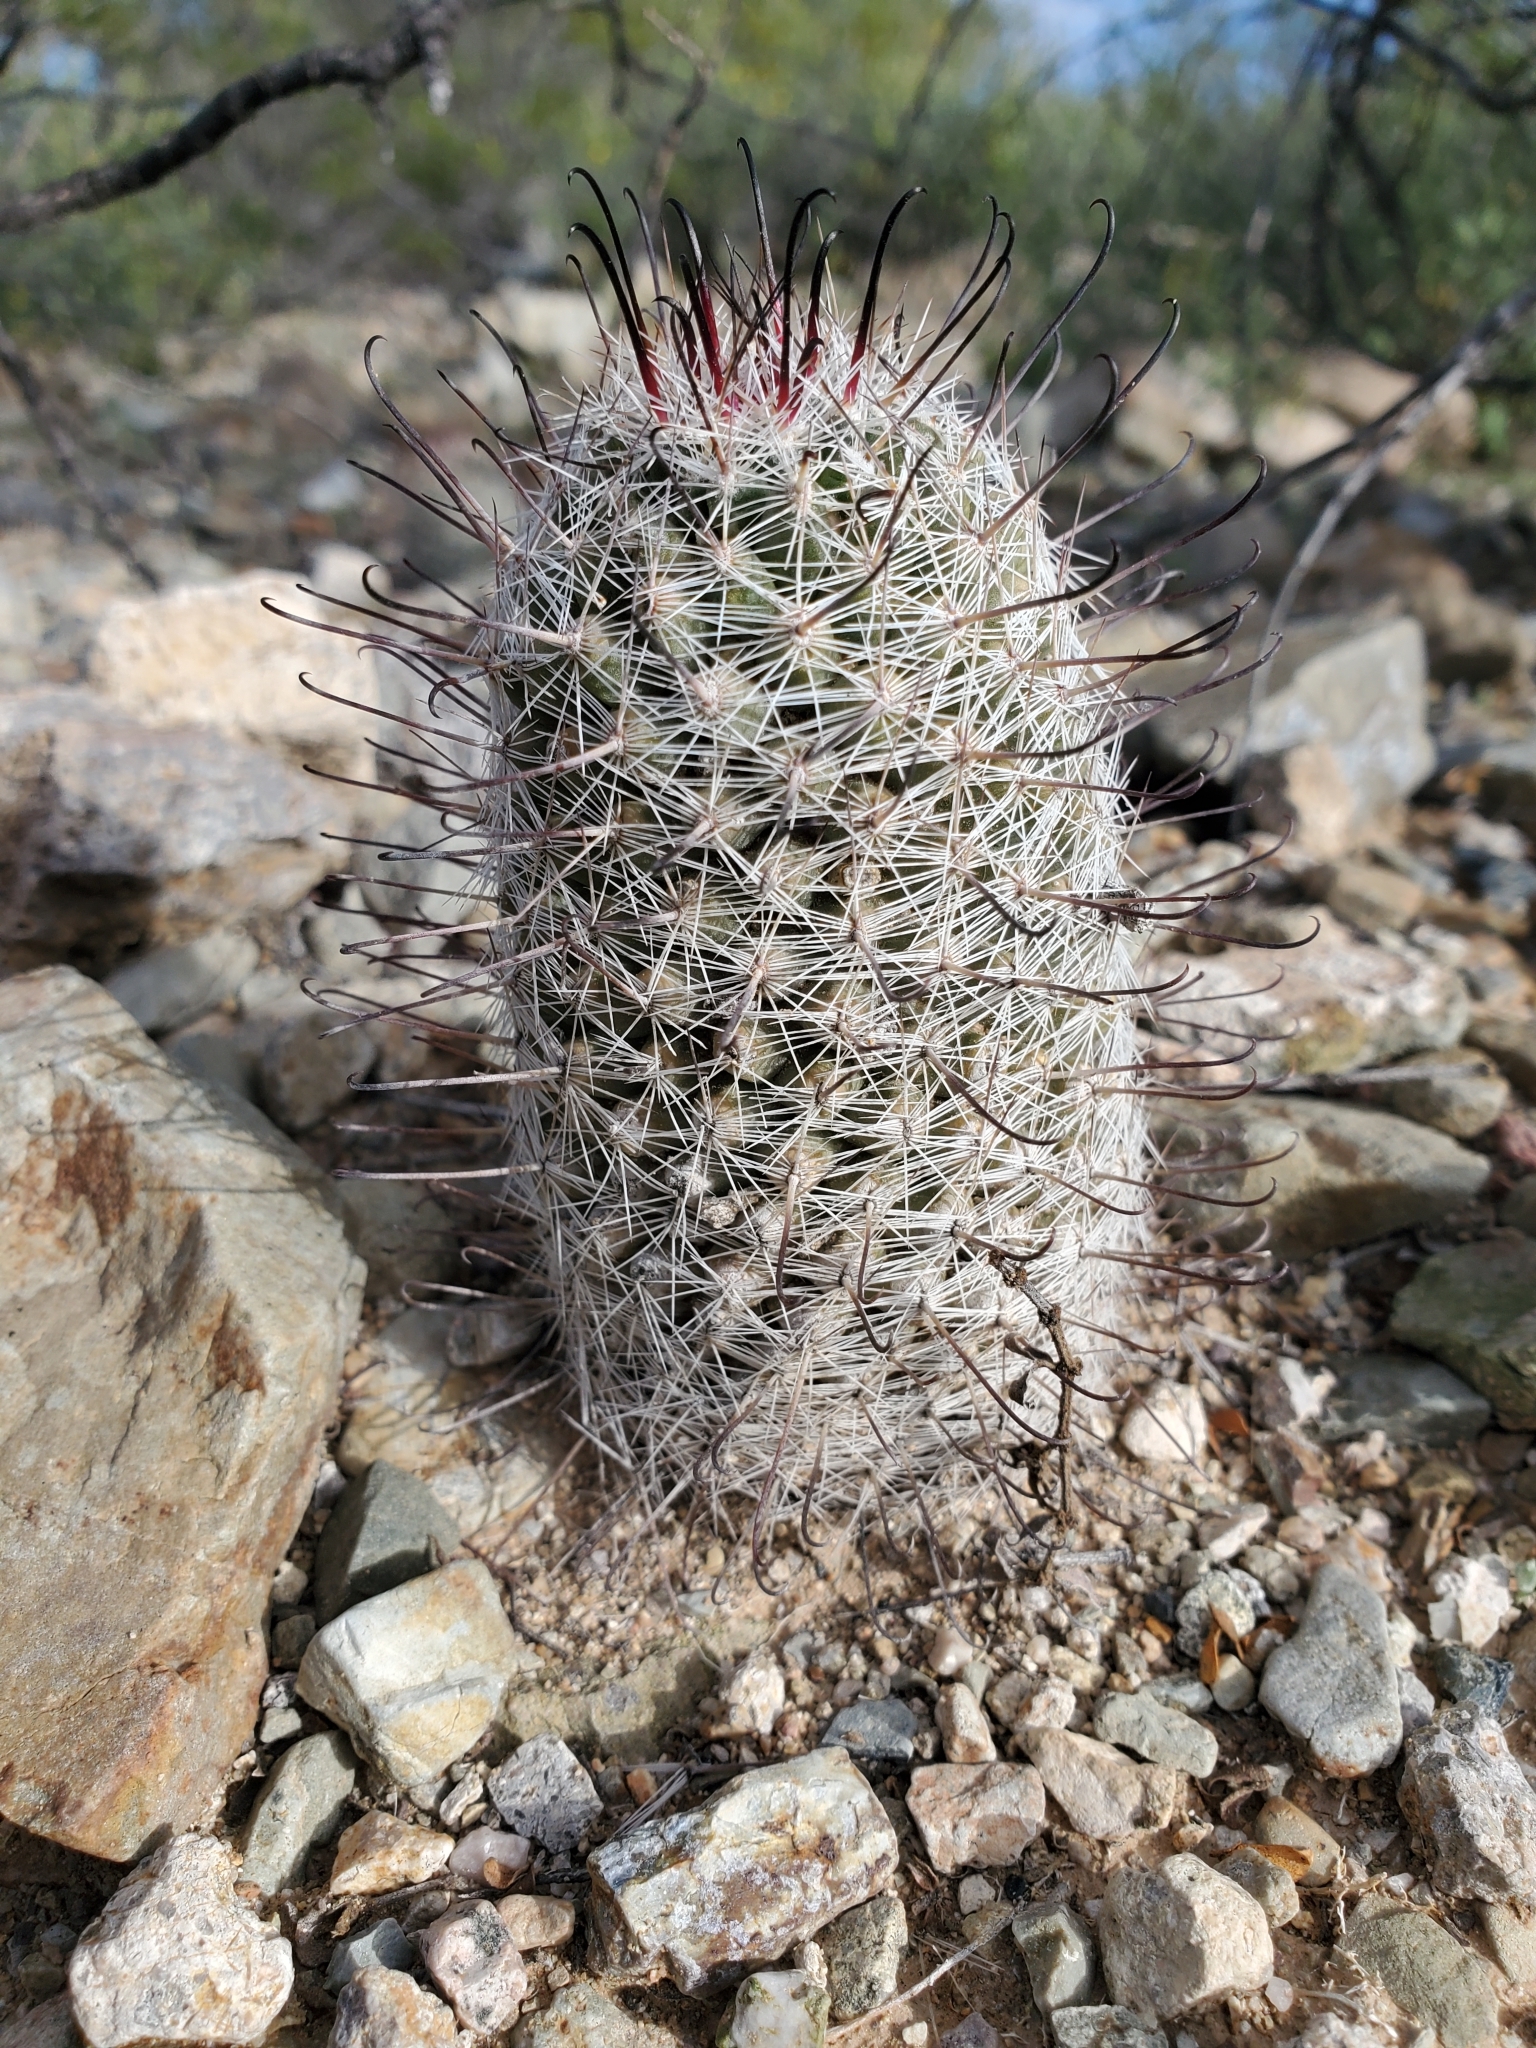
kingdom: Plantae
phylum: Tracheophyta
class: Magnoliopsida
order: Caryophyllales
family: Cactaceae
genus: Cochemiea
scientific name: Cochemiea grahamii
